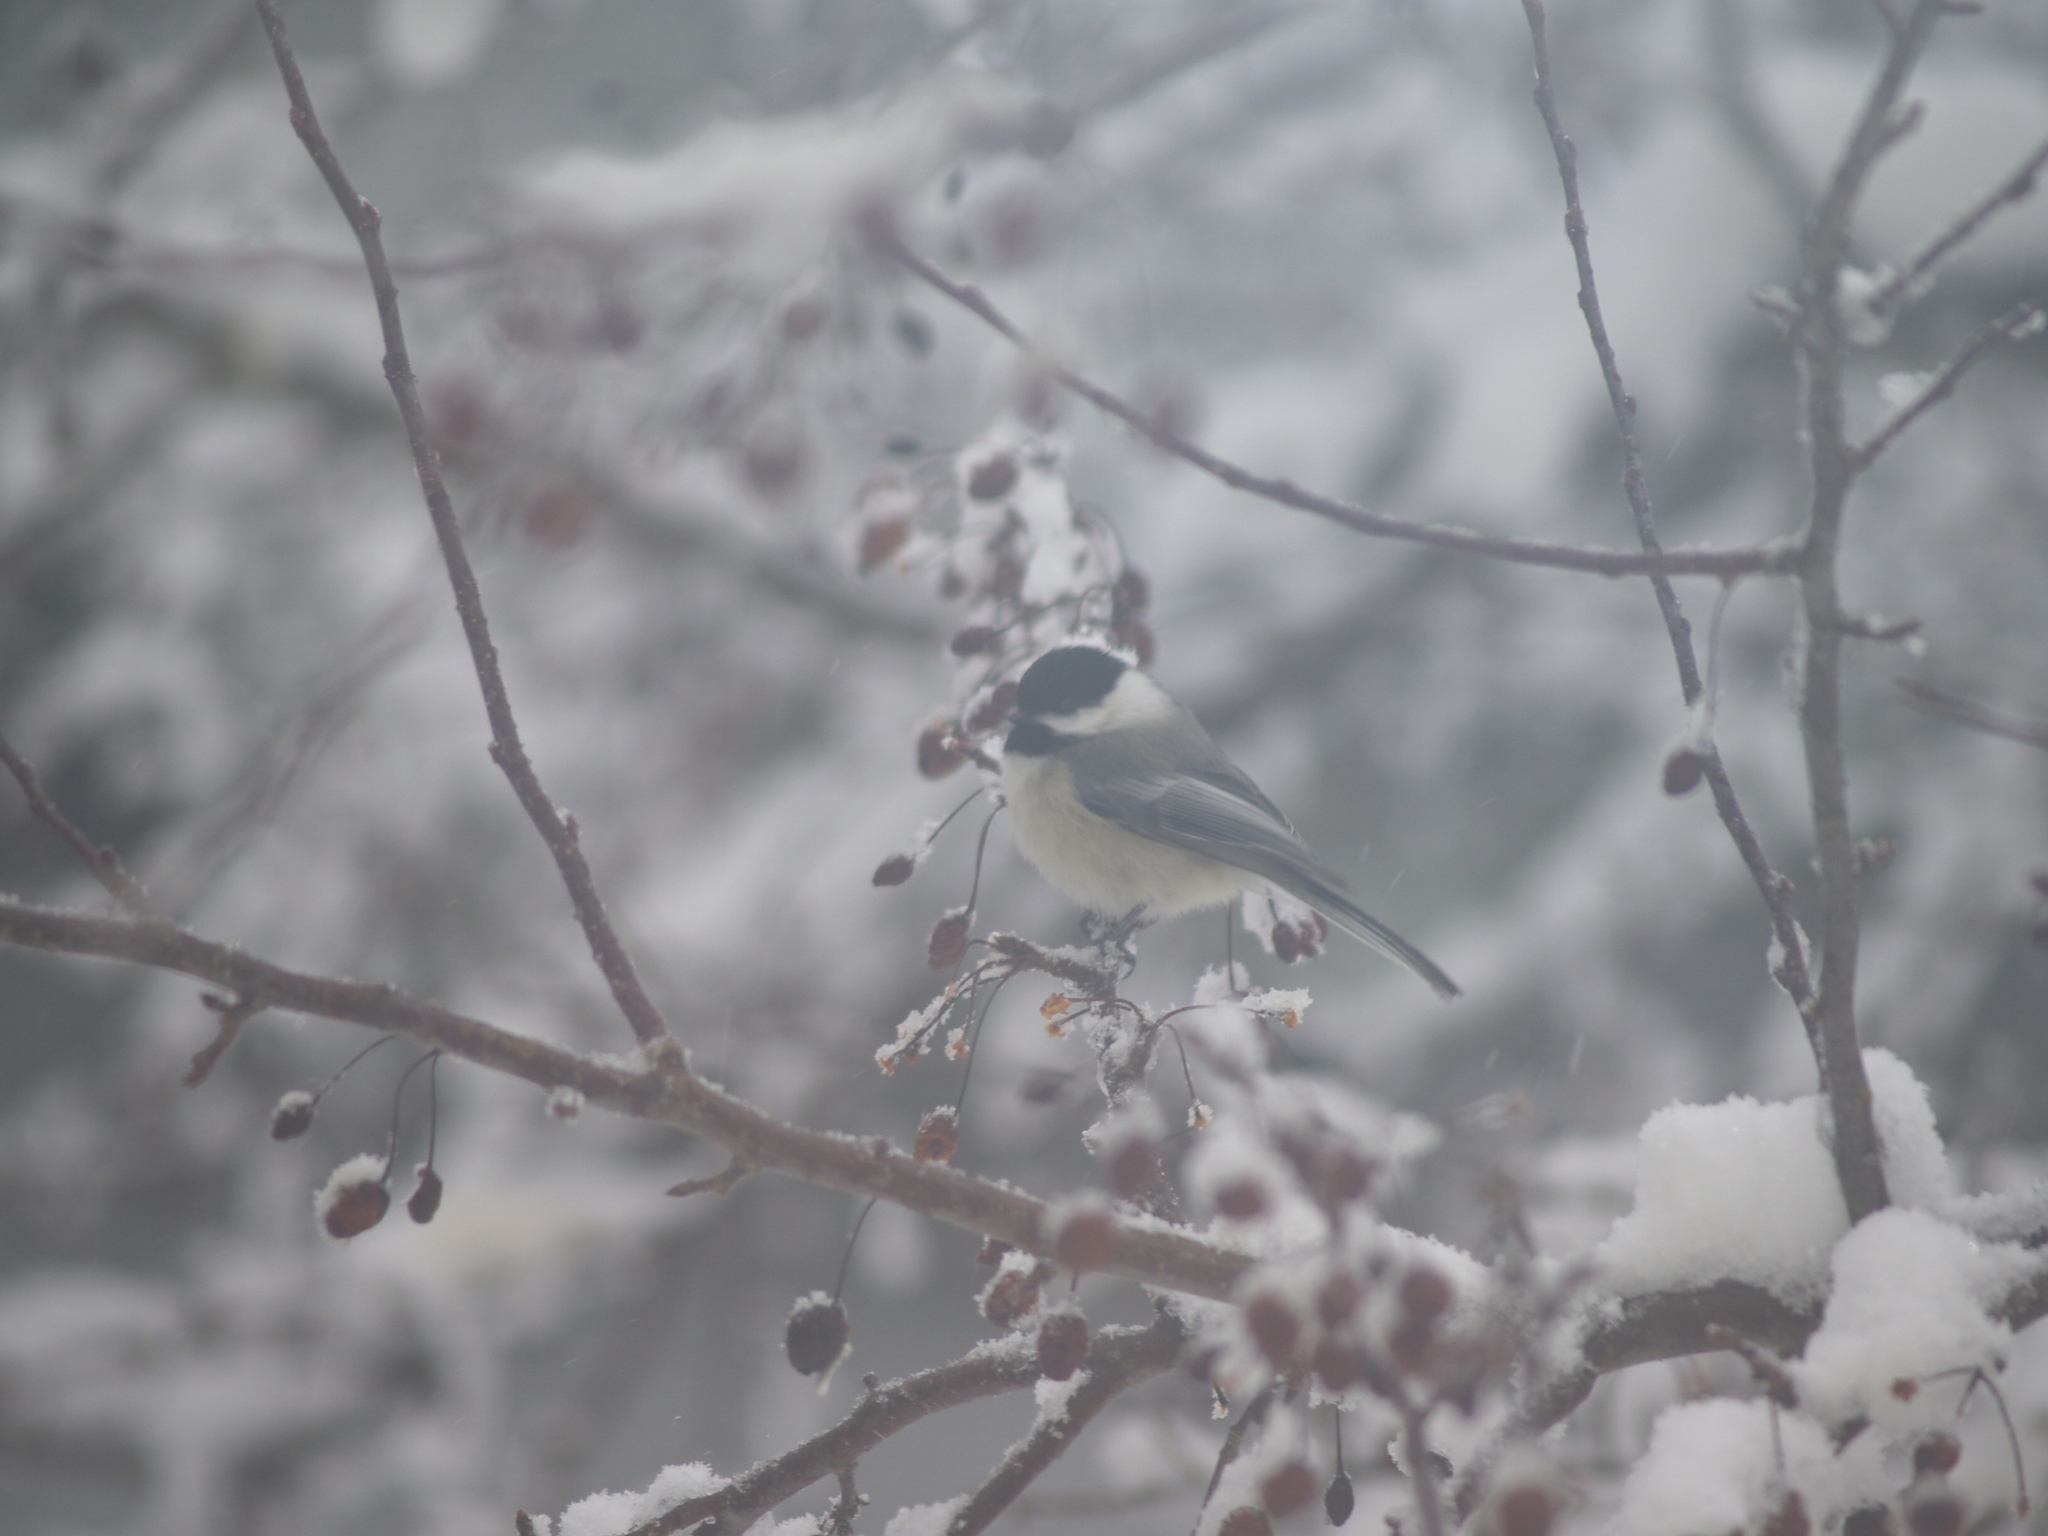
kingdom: Animalia
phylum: Chordata
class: Aves
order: Passeriformes
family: Paridae
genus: Poecile
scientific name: Poecile atricapillus
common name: Black-capped chickadee
